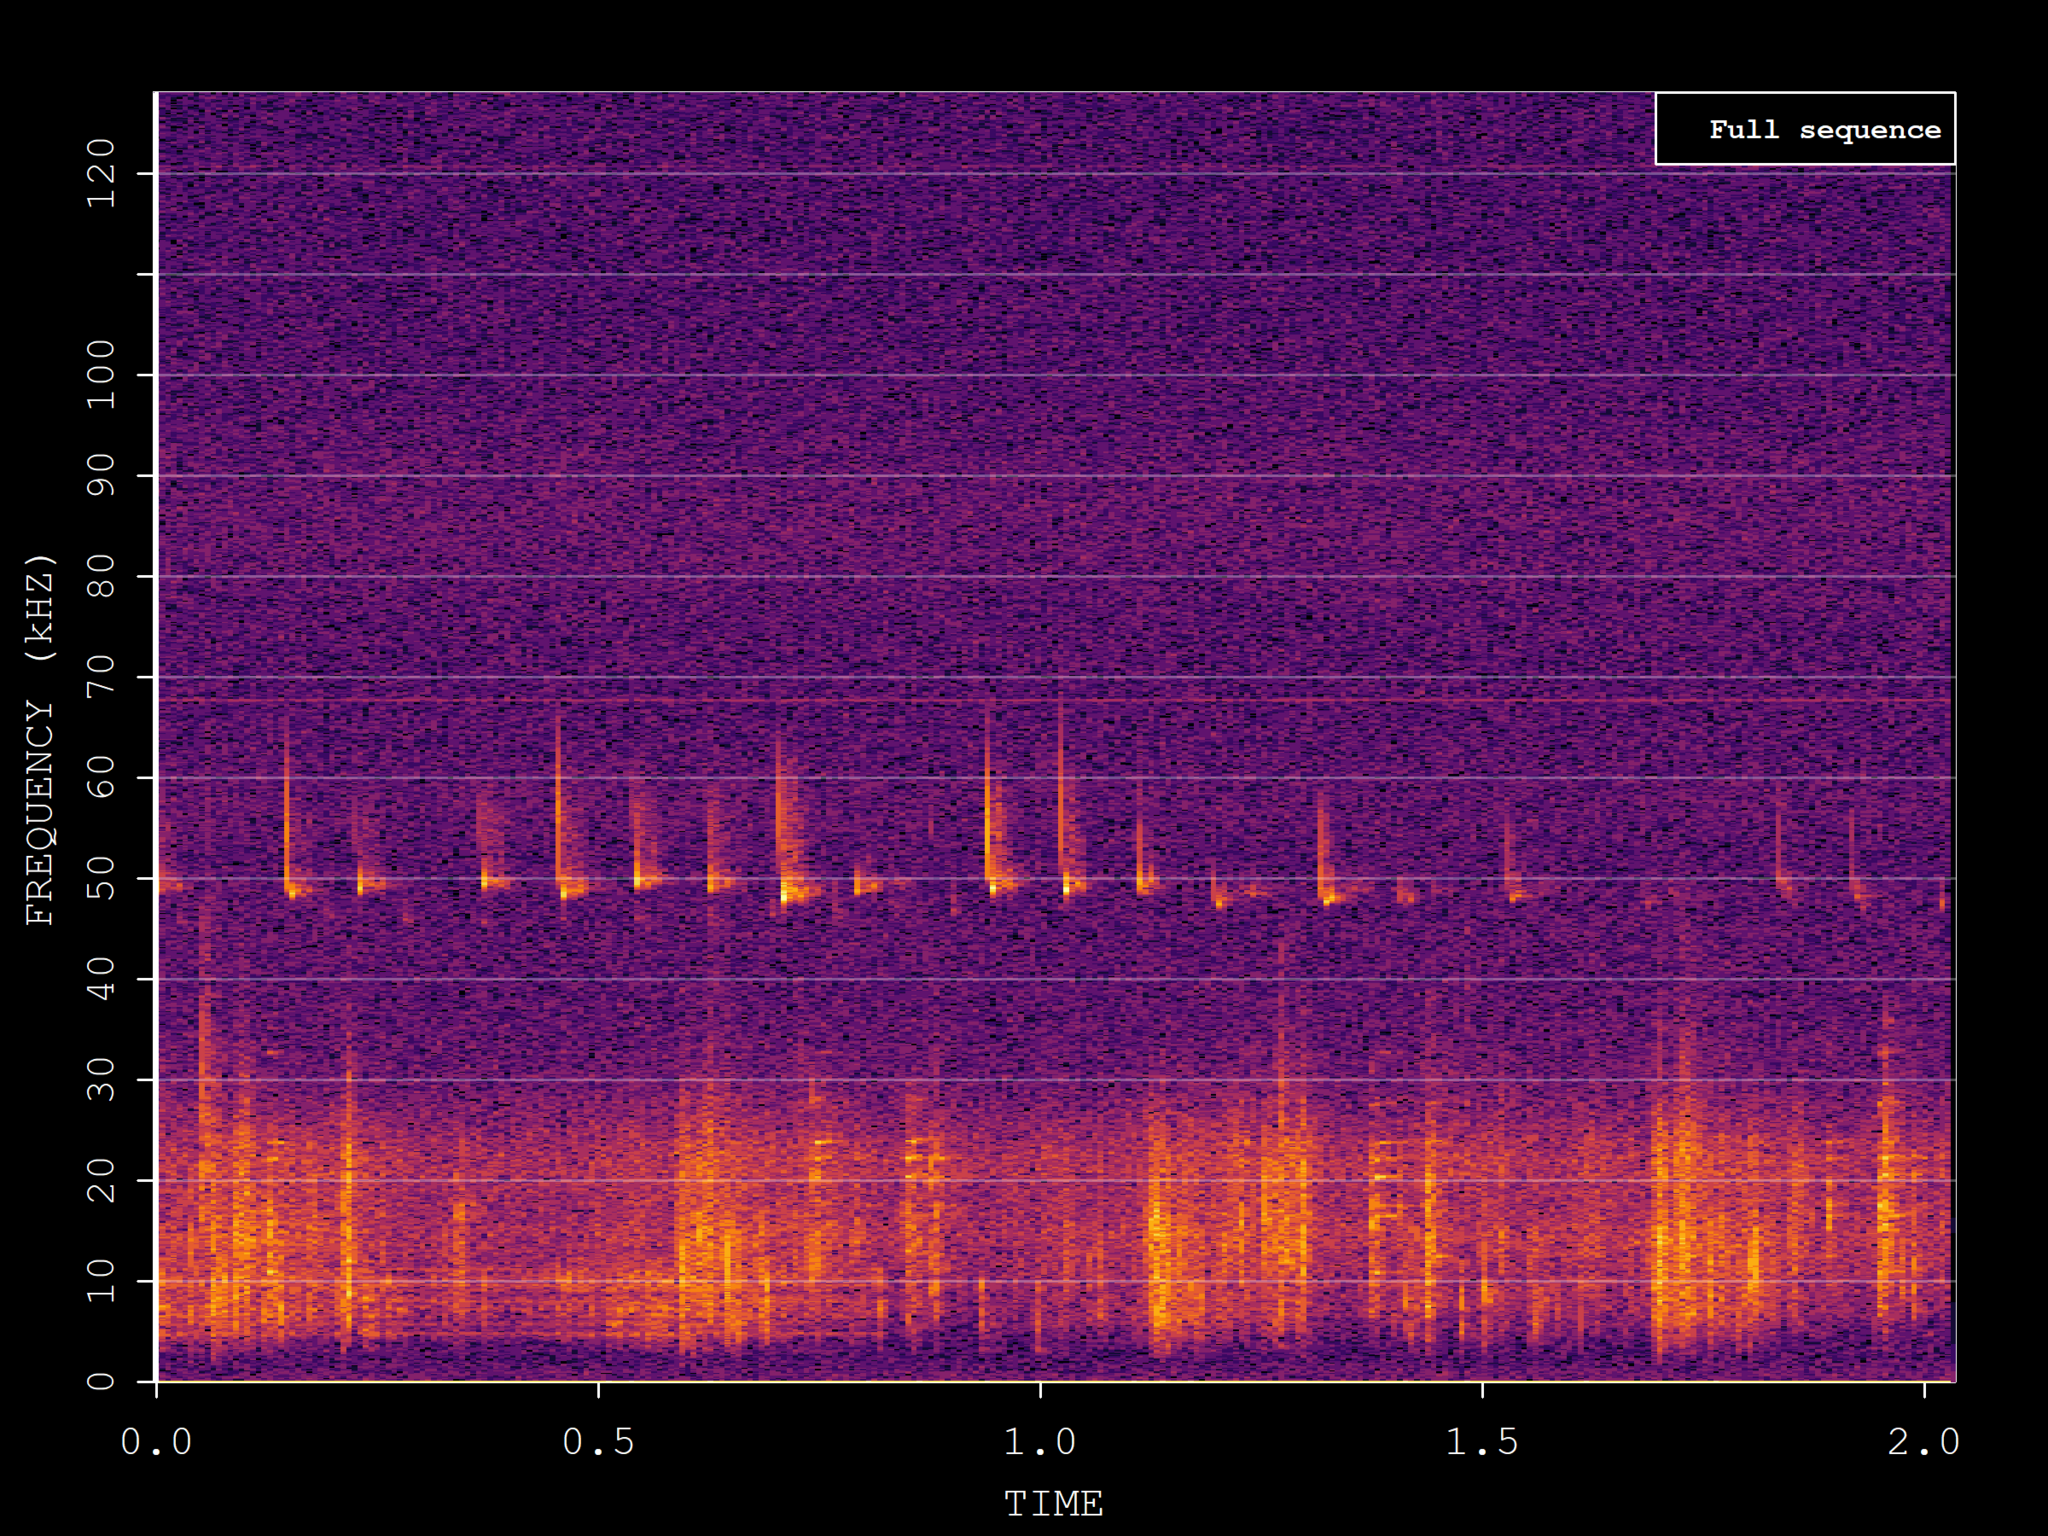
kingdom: Animalia
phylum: Chordata
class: Mammalia
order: Chiroptera
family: Vespertilionidae
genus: Pipistrellus
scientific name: Pipistrellus pipistrellus
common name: Common pipistrelle
